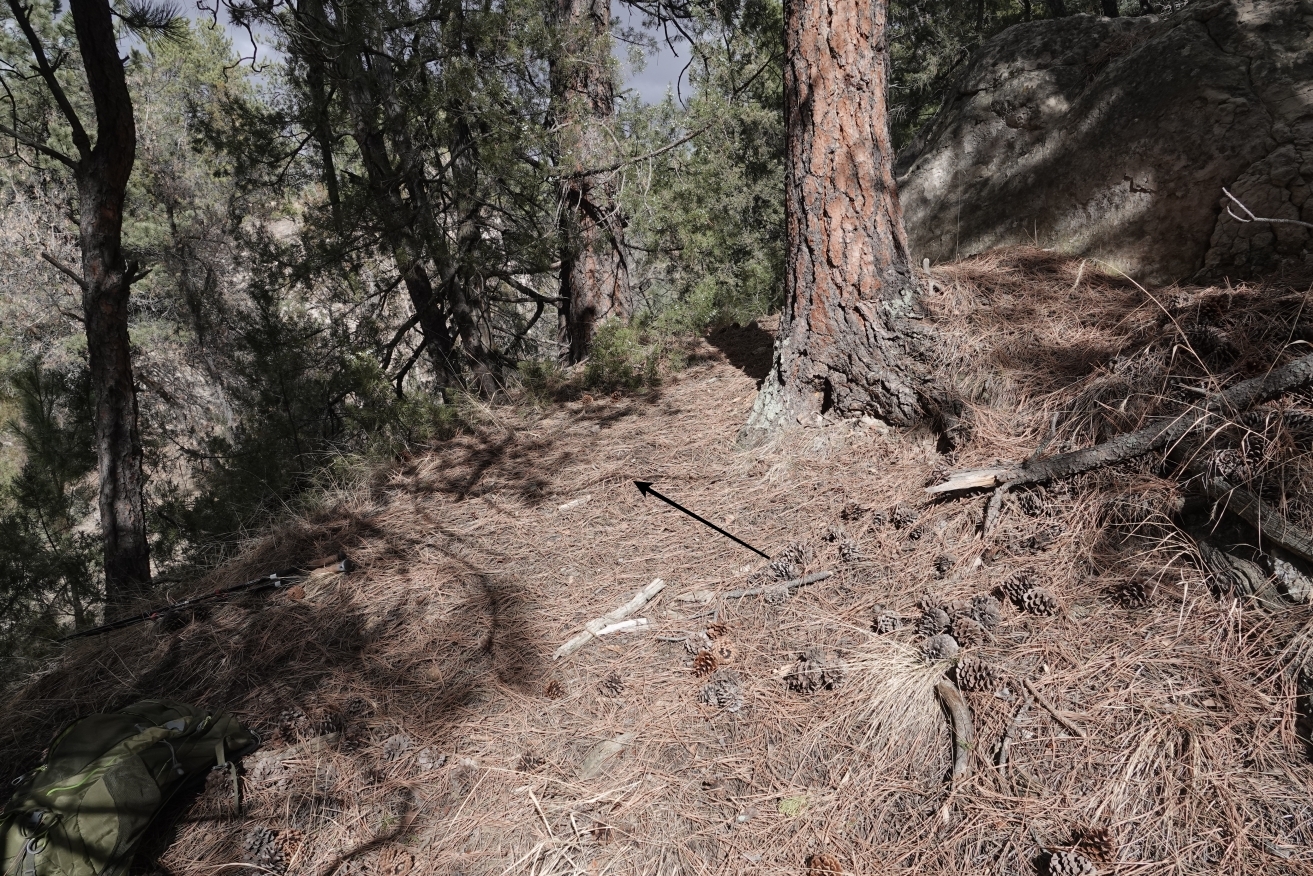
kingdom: Animalia
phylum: Chordata
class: Mammalia
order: Carnivora
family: Felidae
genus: Puma
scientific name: Puma concolor
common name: Puma
